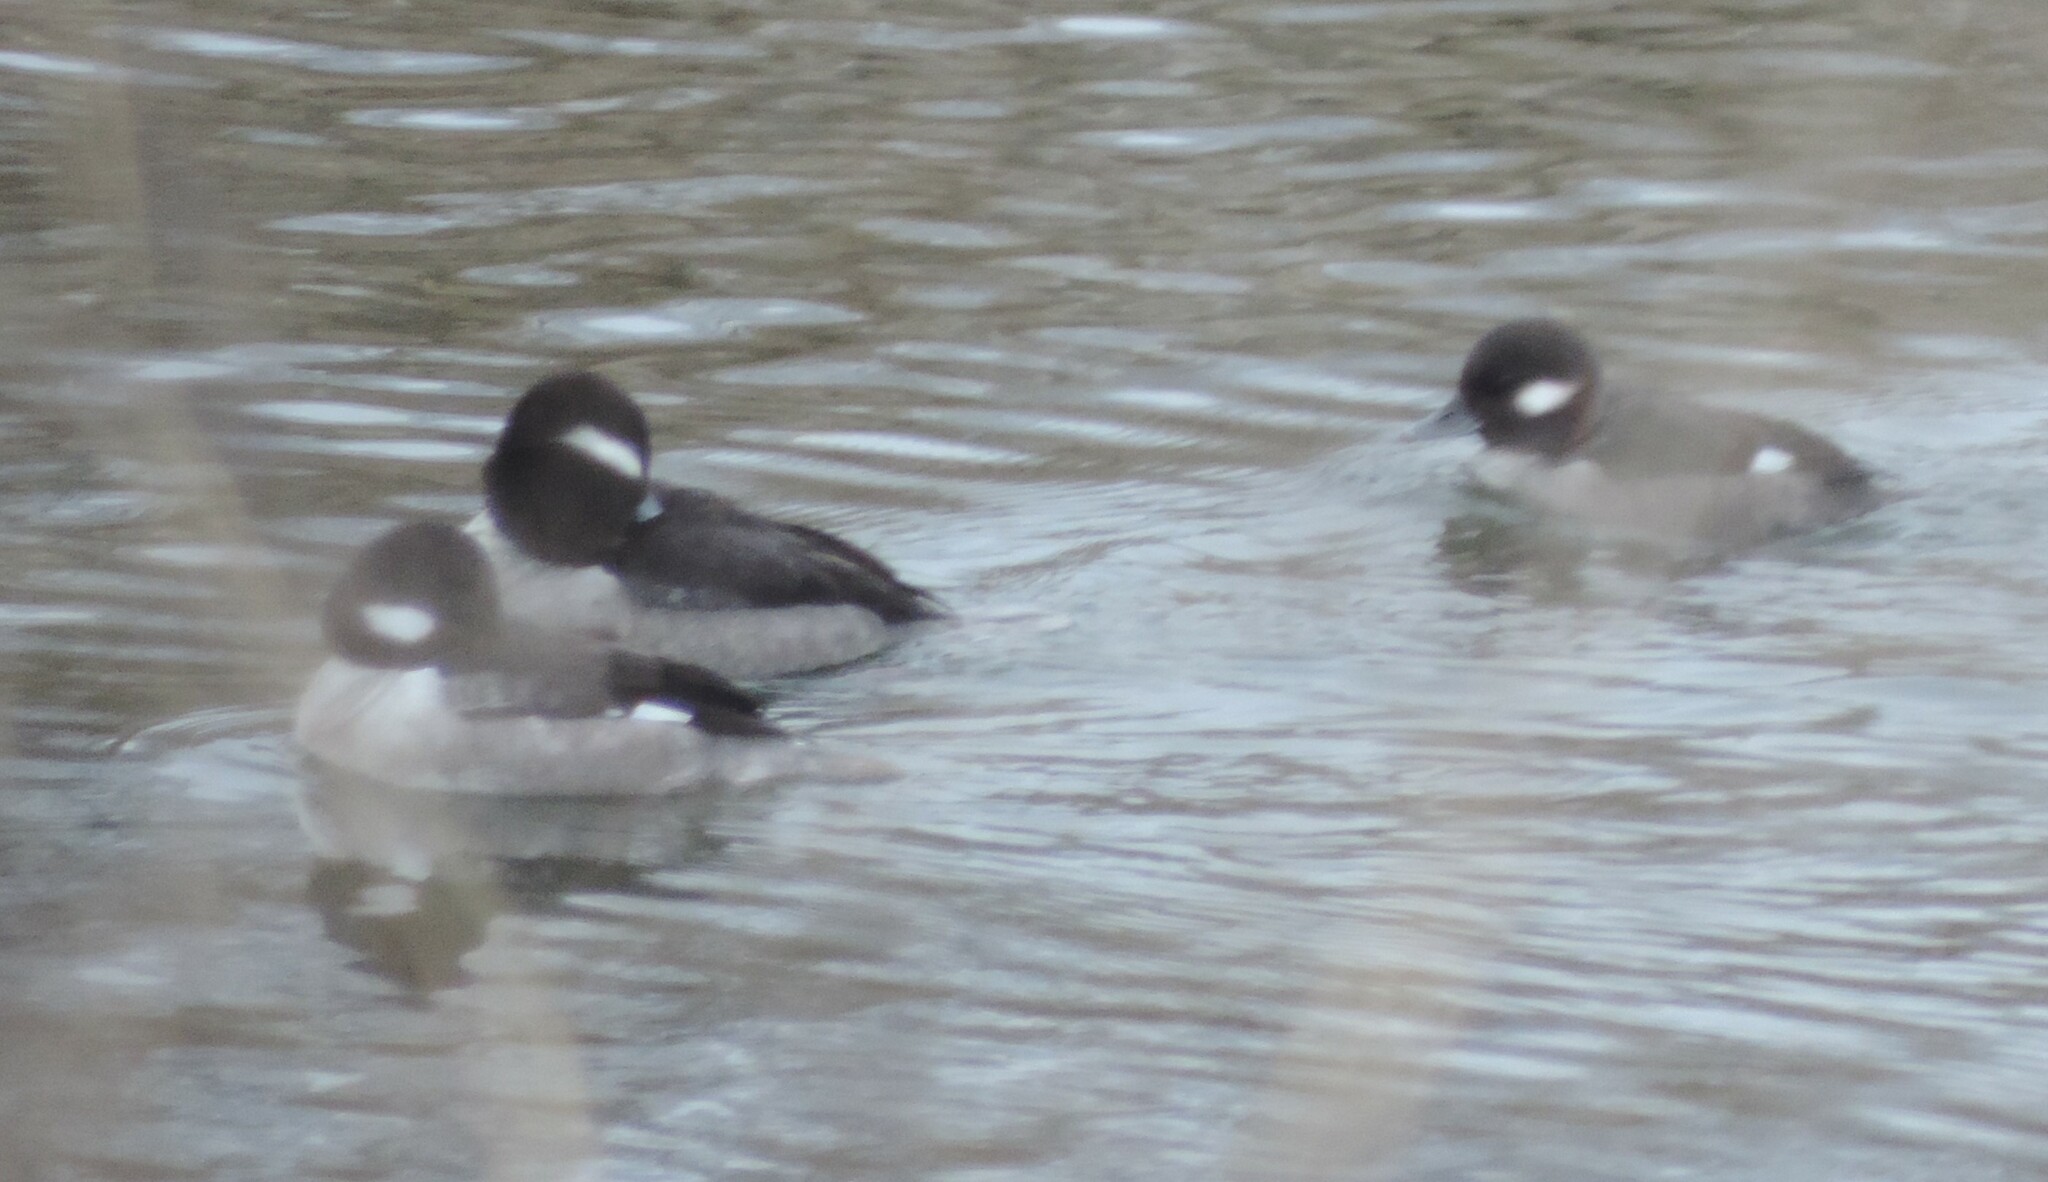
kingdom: Animalia
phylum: Chordata
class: Aves
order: Anseriformes
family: Anatidae
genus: Bucephala
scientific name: Bucephala albeola
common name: Bufflehead
